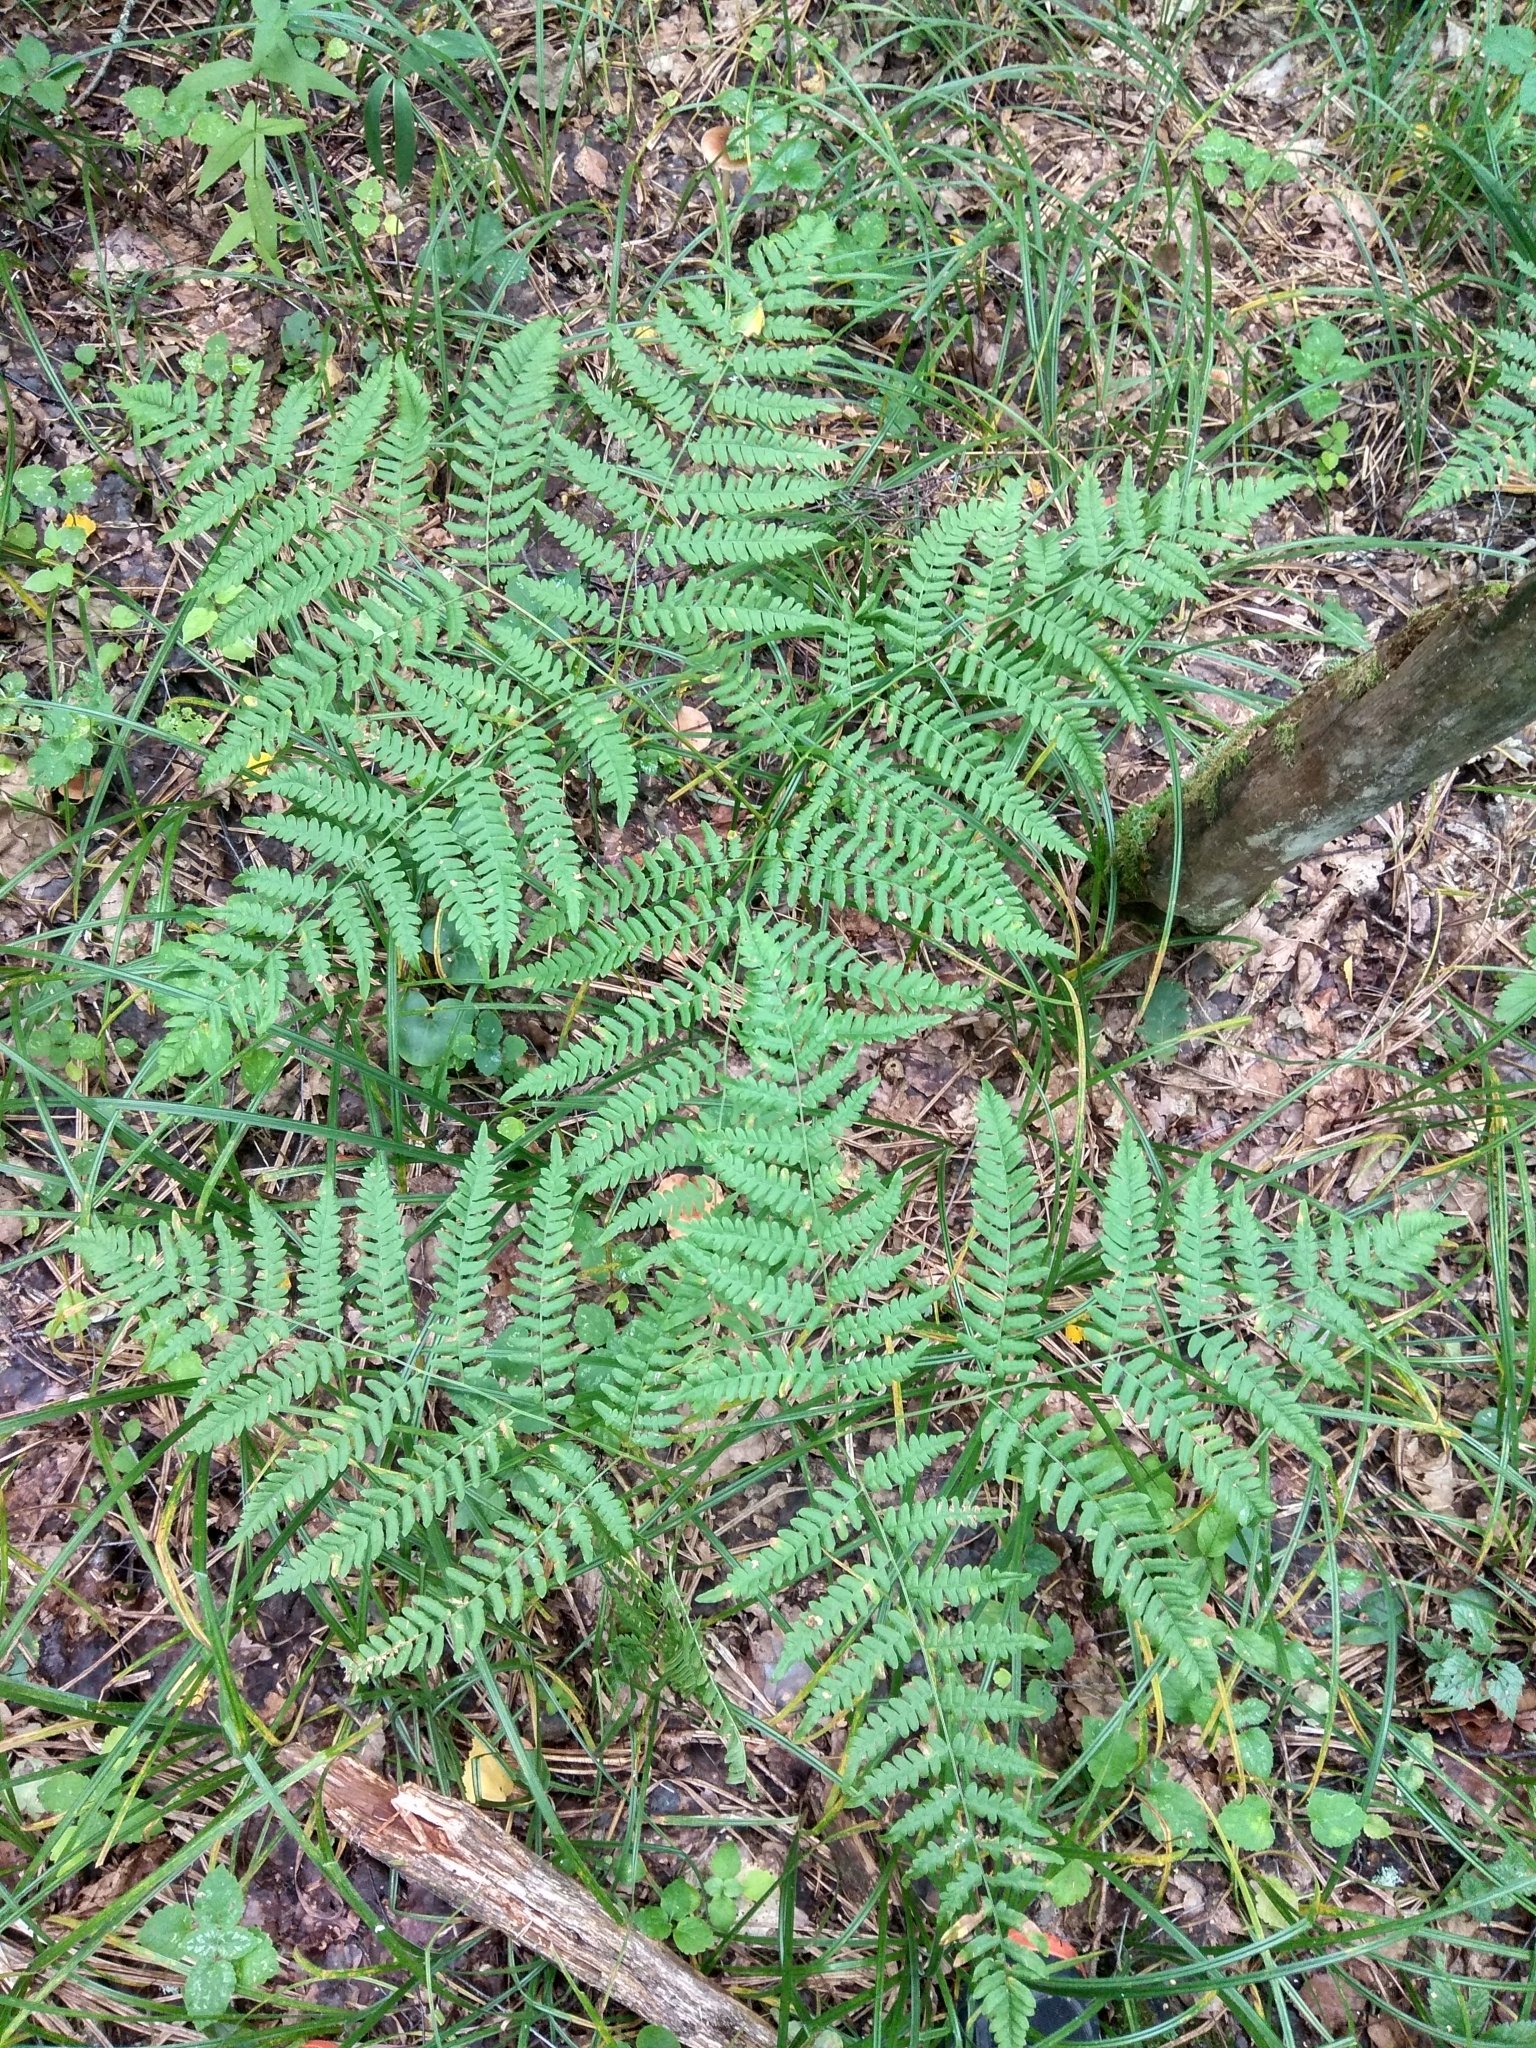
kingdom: Plantae
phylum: Tracheophyta
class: Polypodiopsida
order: Polypodiales
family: Dennstaedtiaceae
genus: Pteridium
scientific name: Pteridium aquilinum
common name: Bracken
